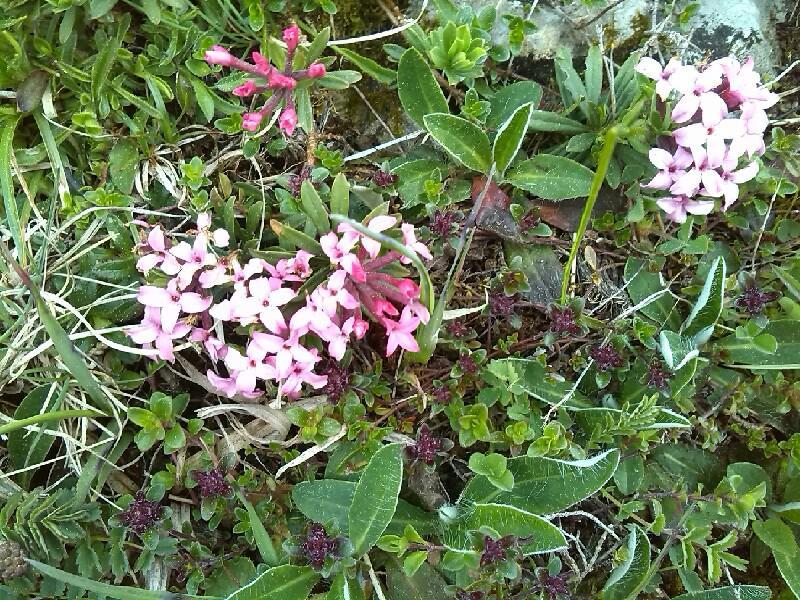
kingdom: Plantae
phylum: Tracheophyta
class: Magnoliopsida
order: Malvales
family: Thymelaeaceae
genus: Daphne
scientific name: Daphne cneorum
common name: Garland-flower
